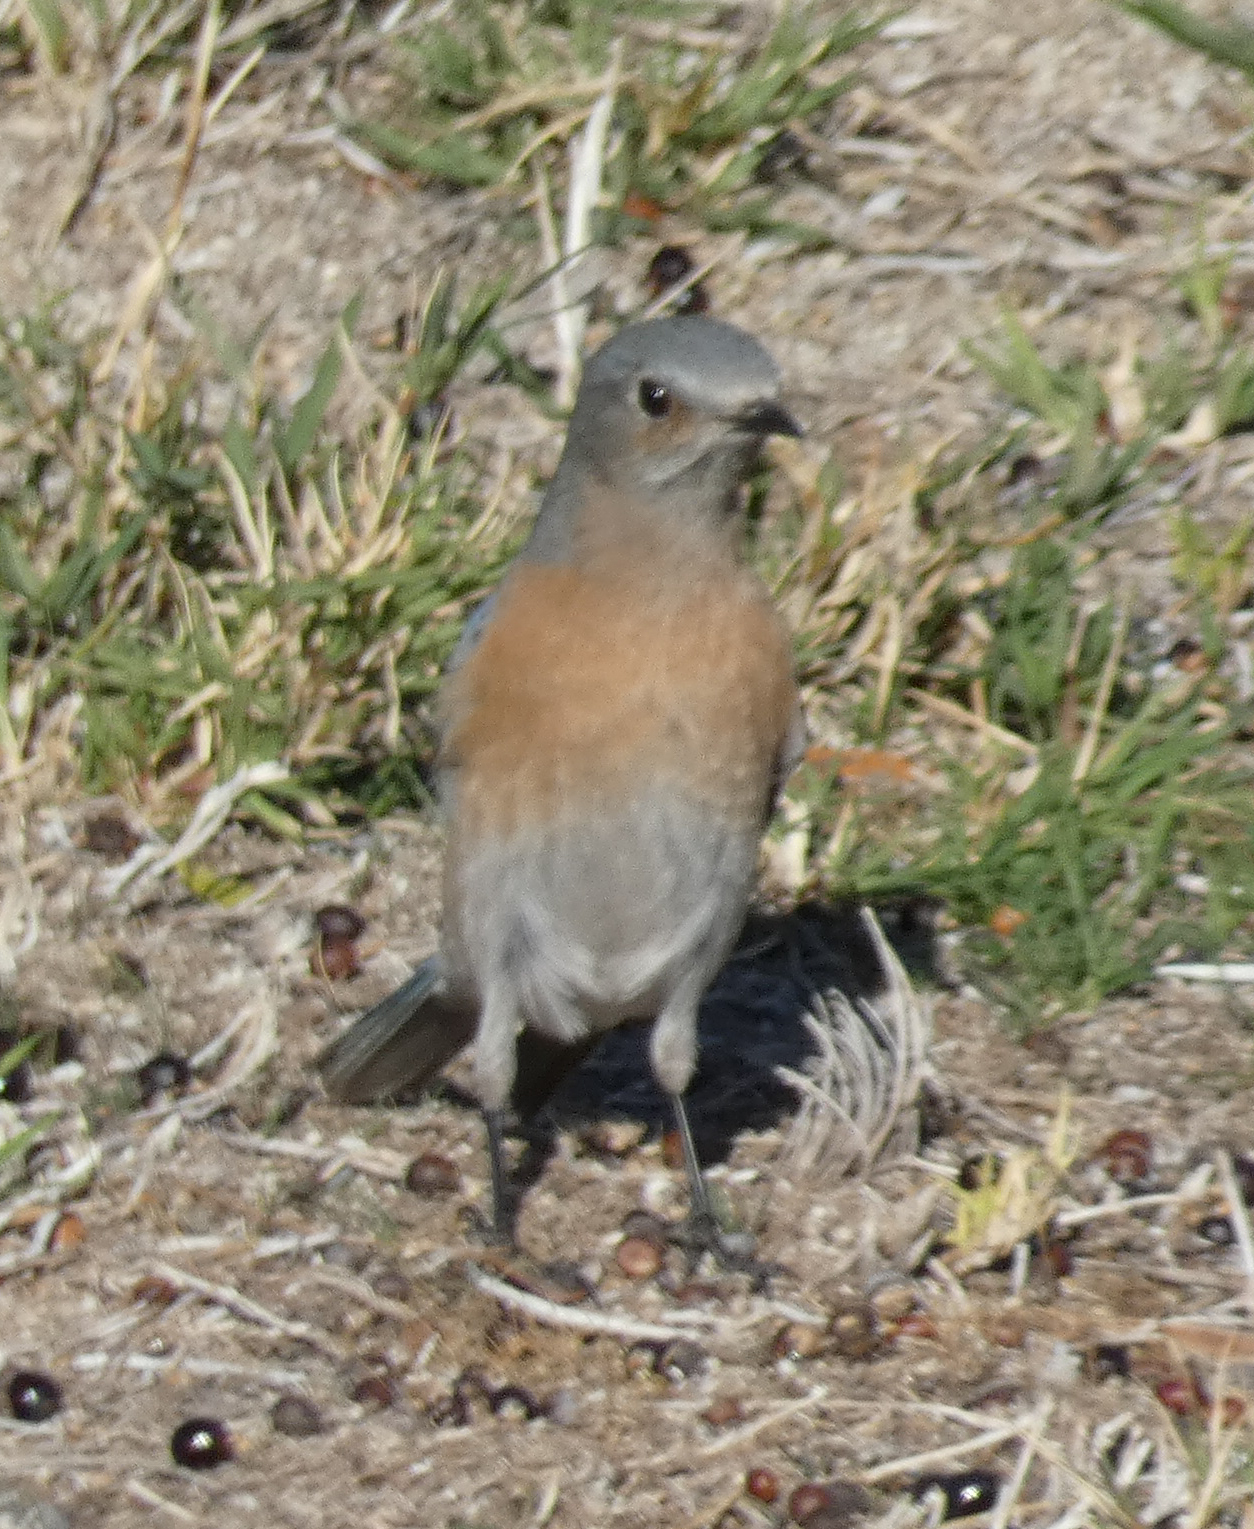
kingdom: Animalia
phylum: Chordata
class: Aves
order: Passeriformes
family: Turdidae
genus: Sialia
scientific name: Sialia mexicana
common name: Western bluebird
